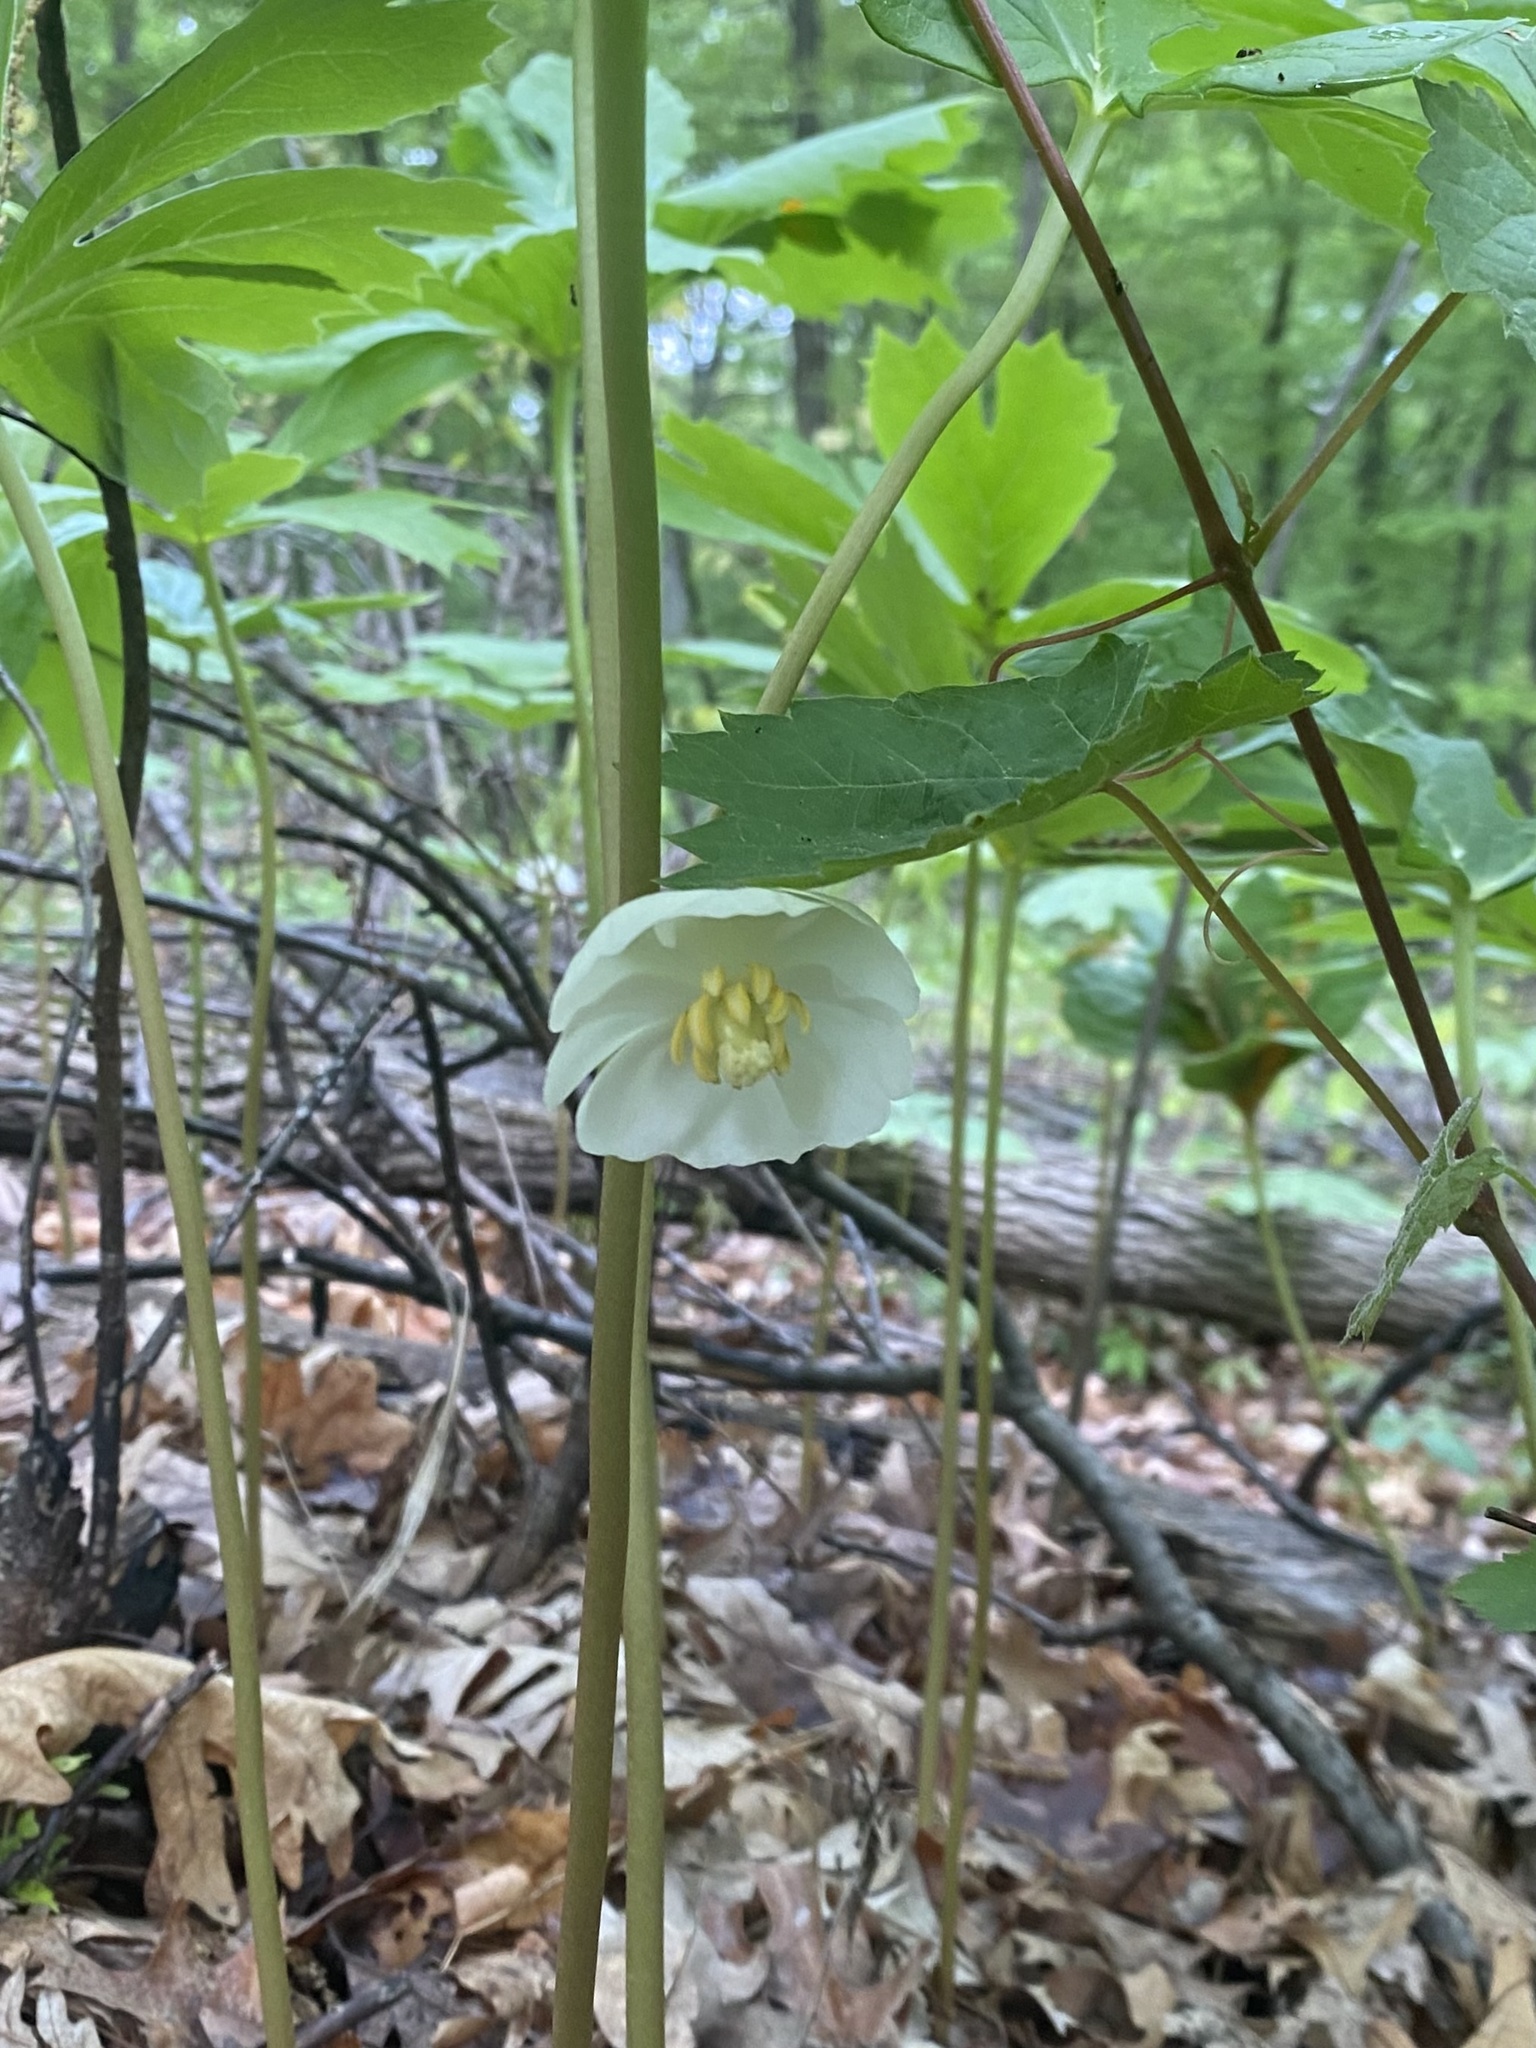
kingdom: Plantae
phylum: Tracheophyta
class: Magnoliopsida
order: Ranunculales
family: Berberidaceae
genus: Podophyllum
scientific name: Podophyllum peltatum
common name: Wild mandrake
